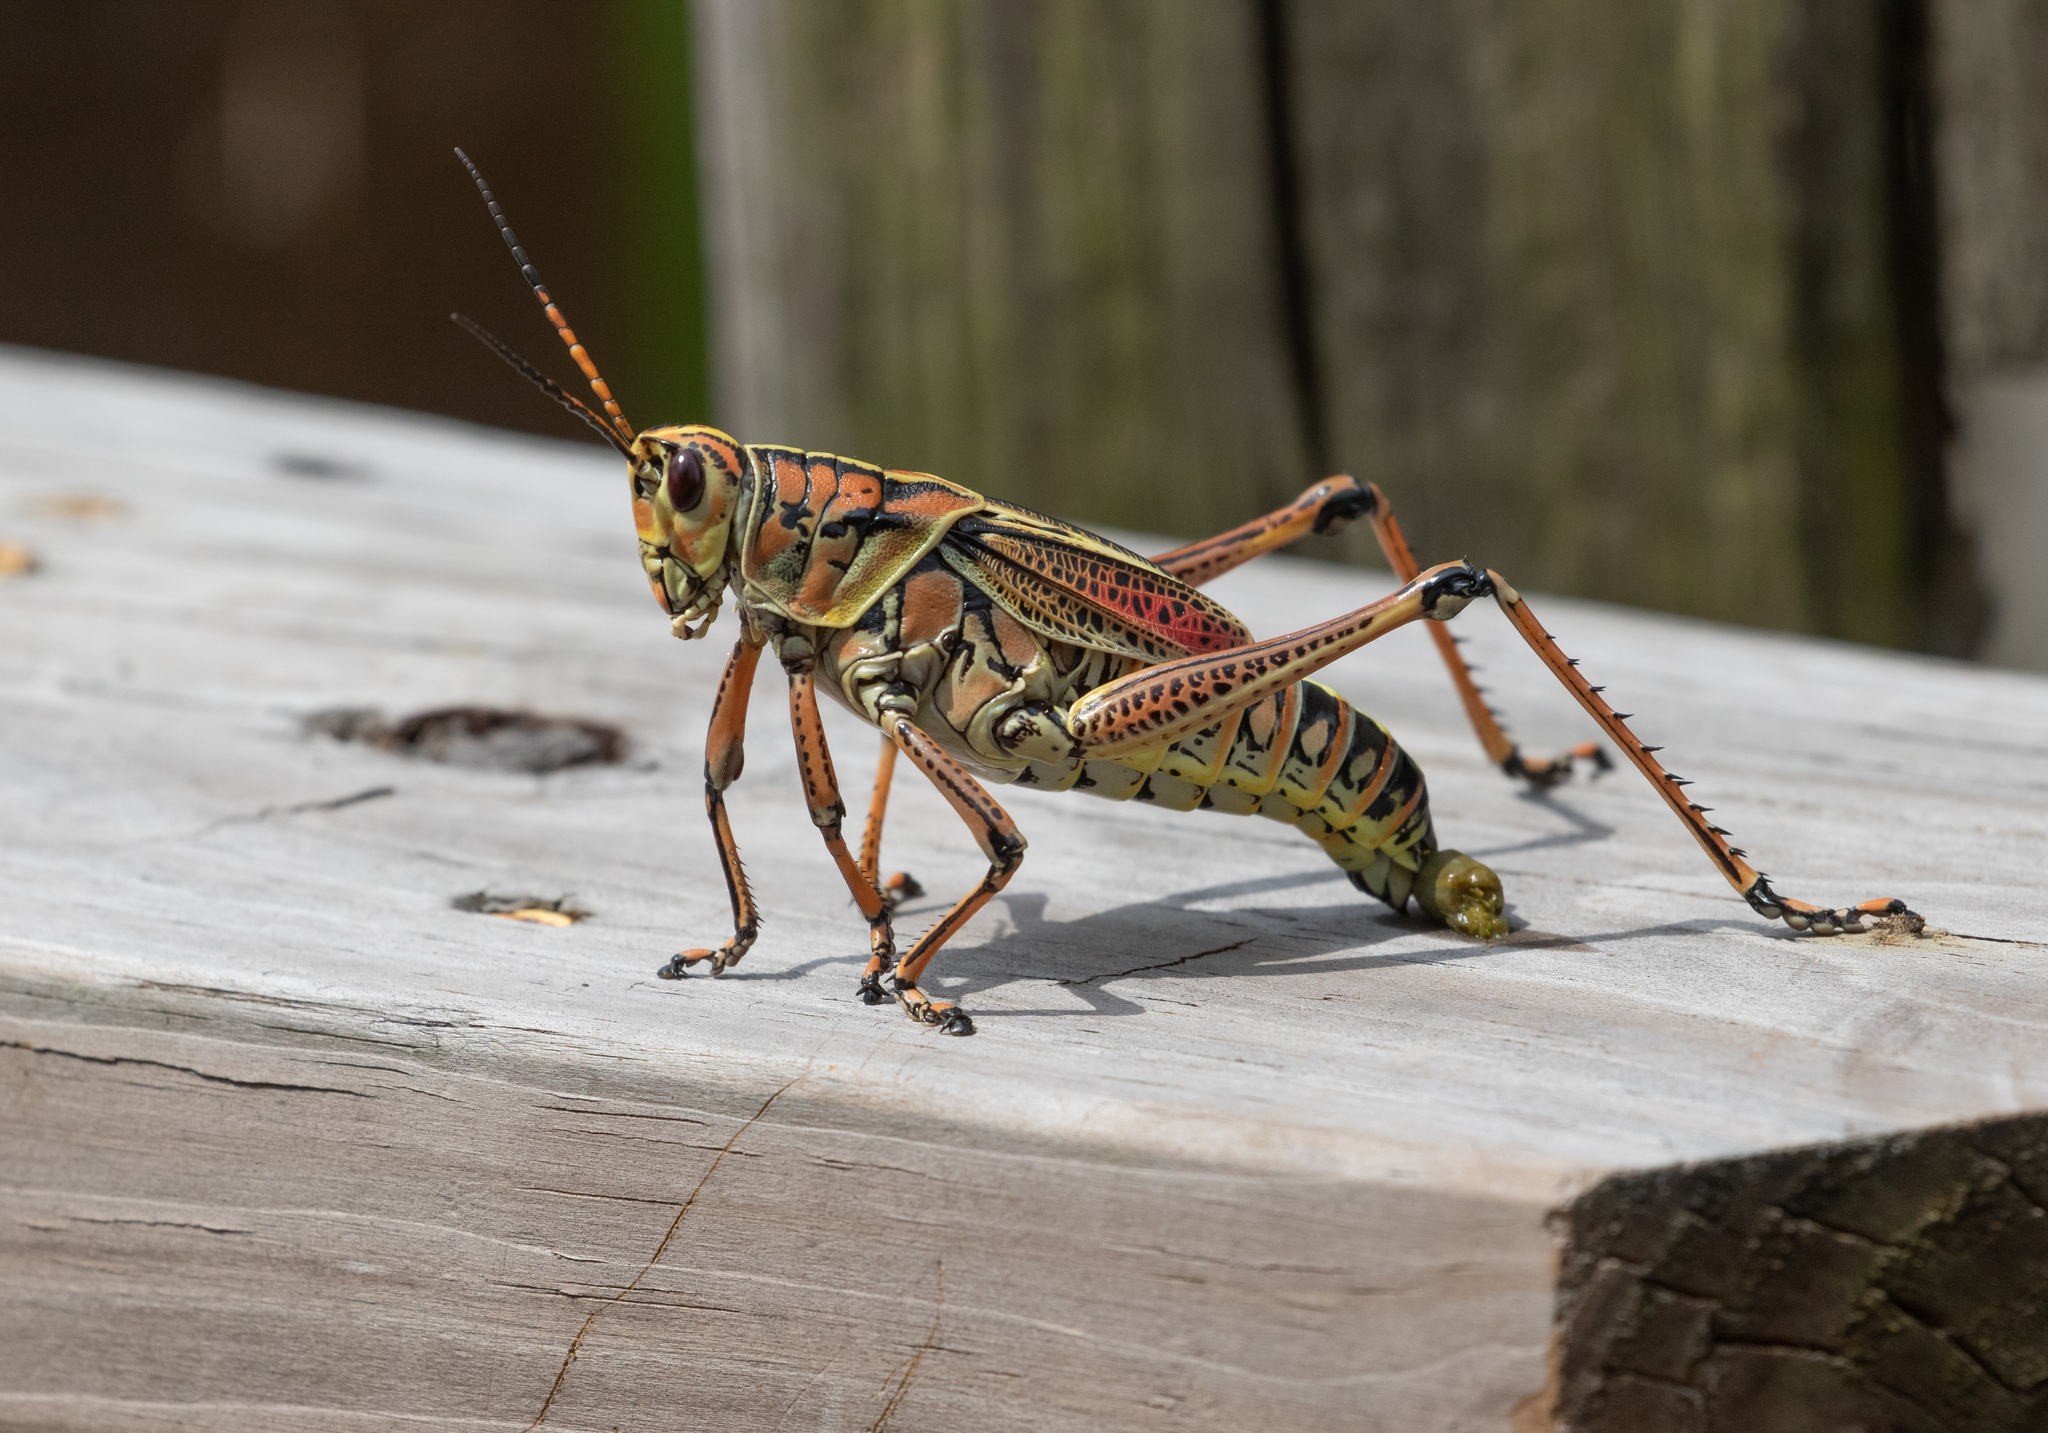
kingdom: Animalia
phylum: Arthropoda
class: Insecta
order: Orthoptera
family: Romaleidae
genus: Romalea
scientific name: Romalea microptera
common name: Eastern lubber grasshopper
